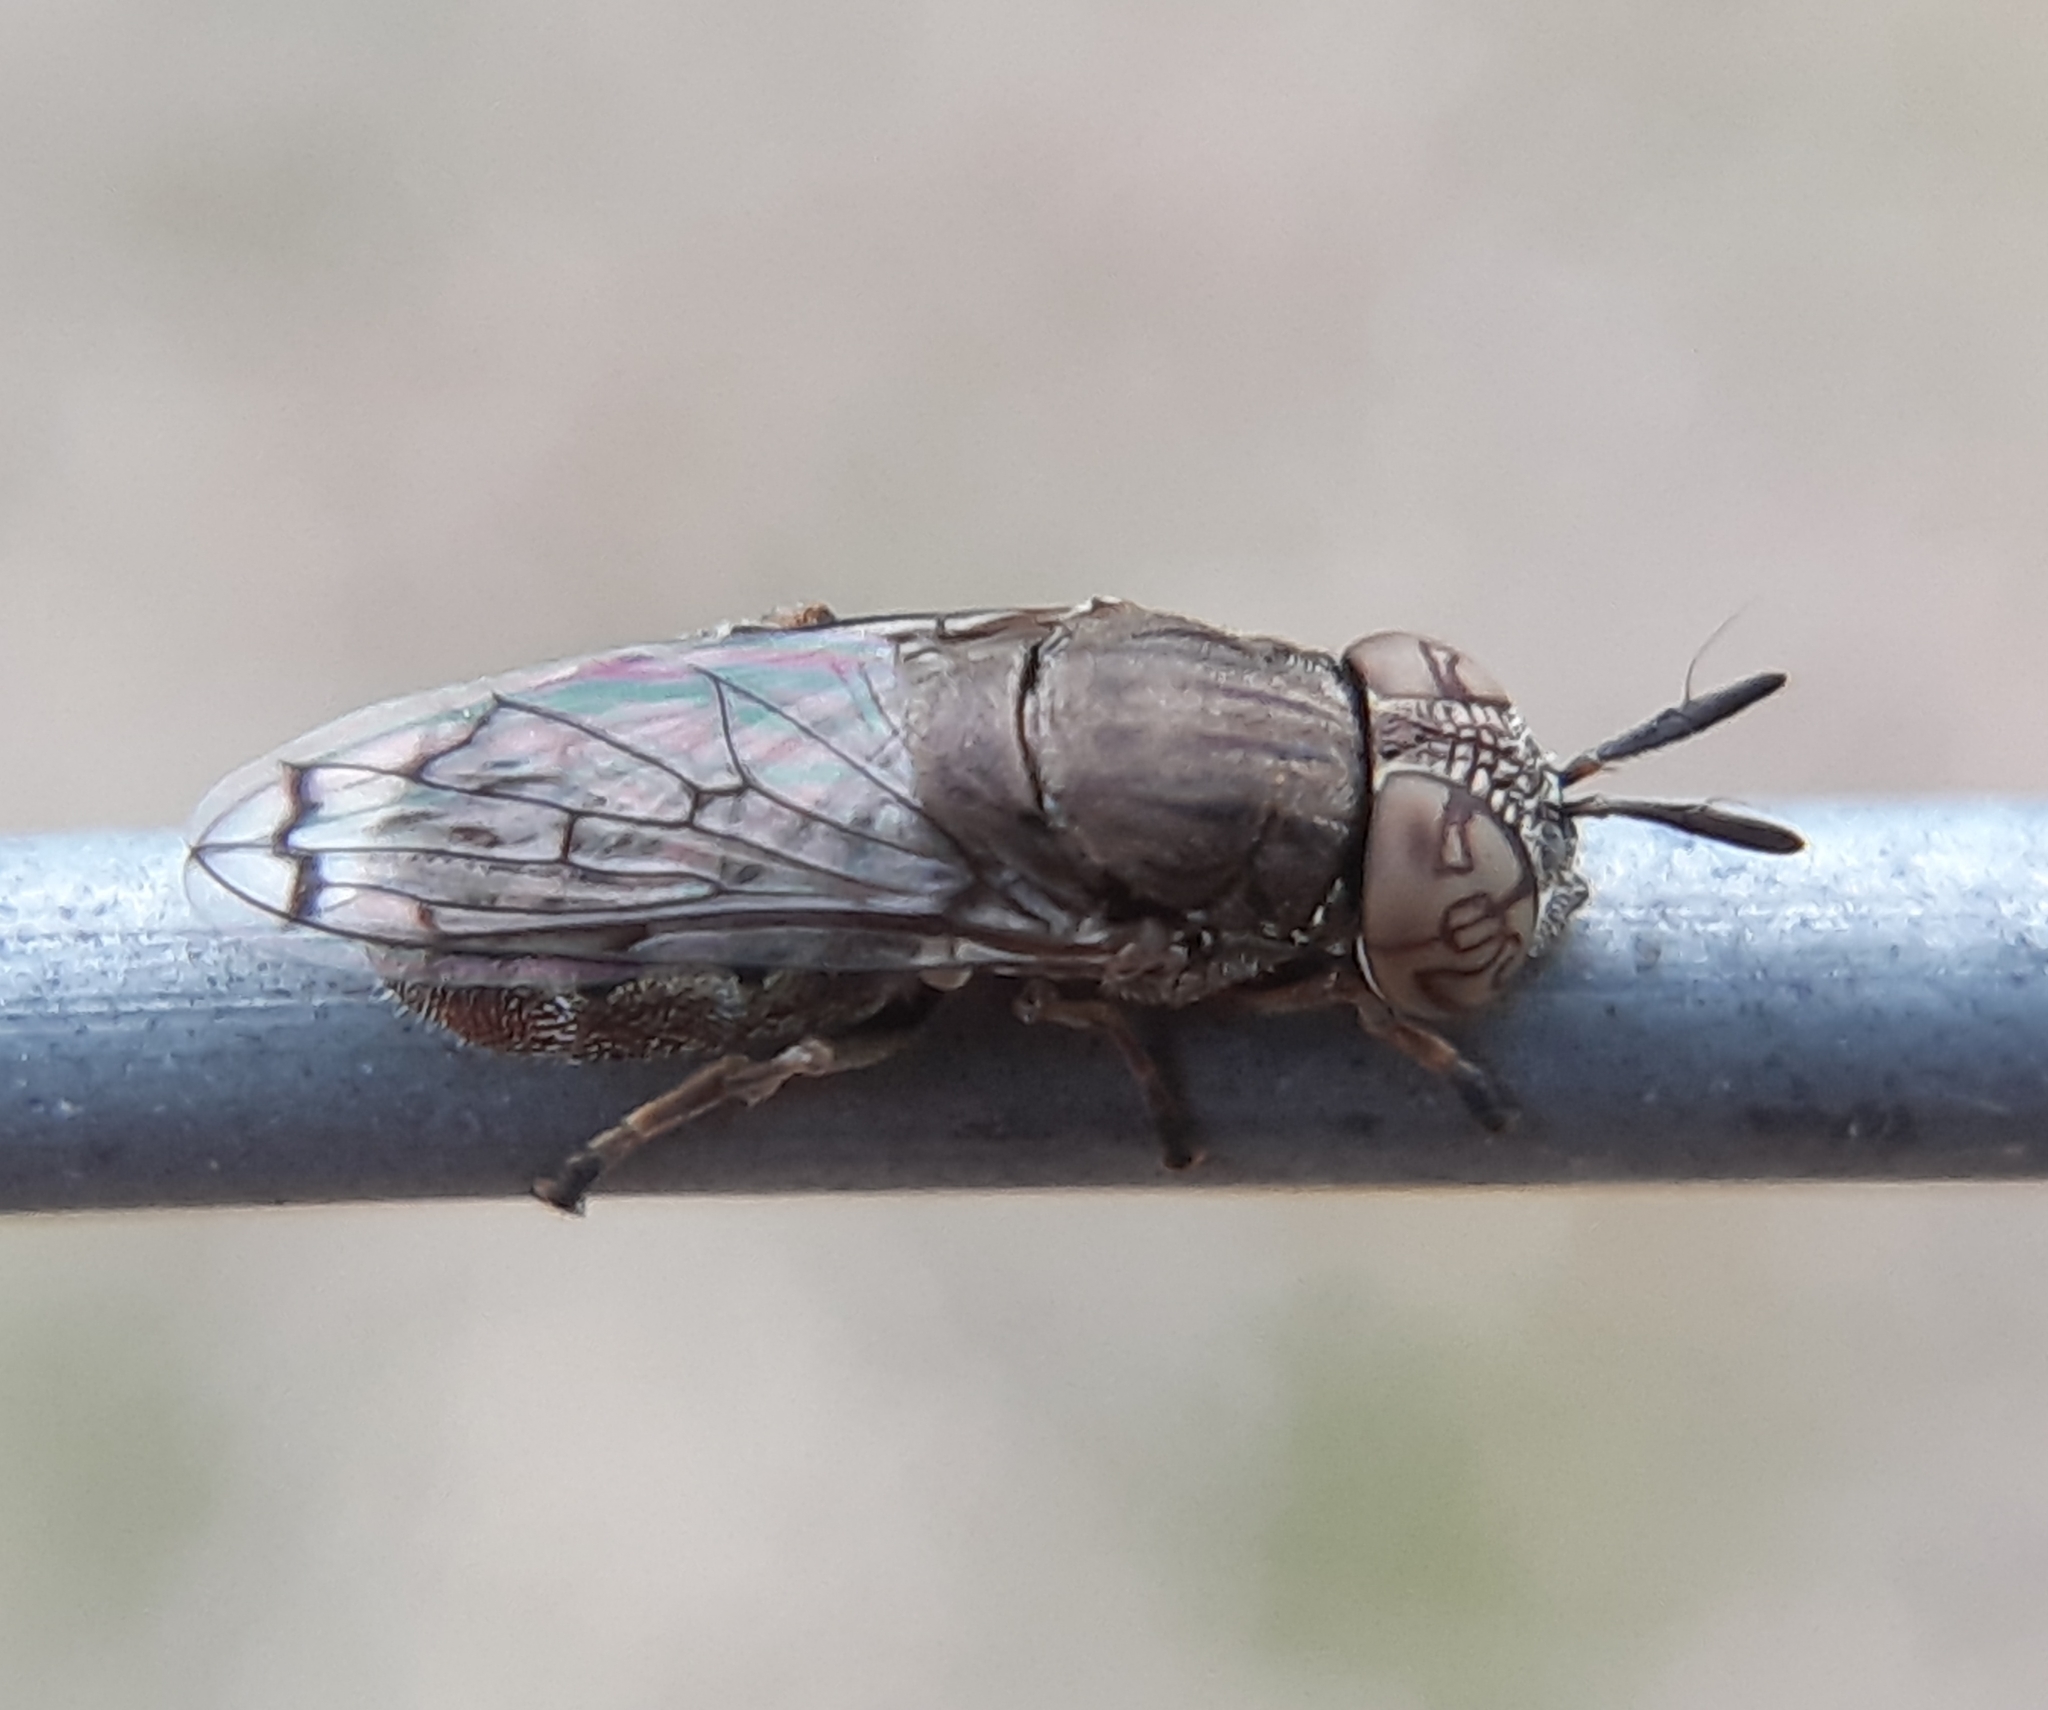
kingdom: Animalia
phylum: Arthropoda
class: Insecta
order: Diptera
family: Syrphidae
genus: Orthonevra
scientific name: Orthonevra nitida
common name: Wavy mucksucker
